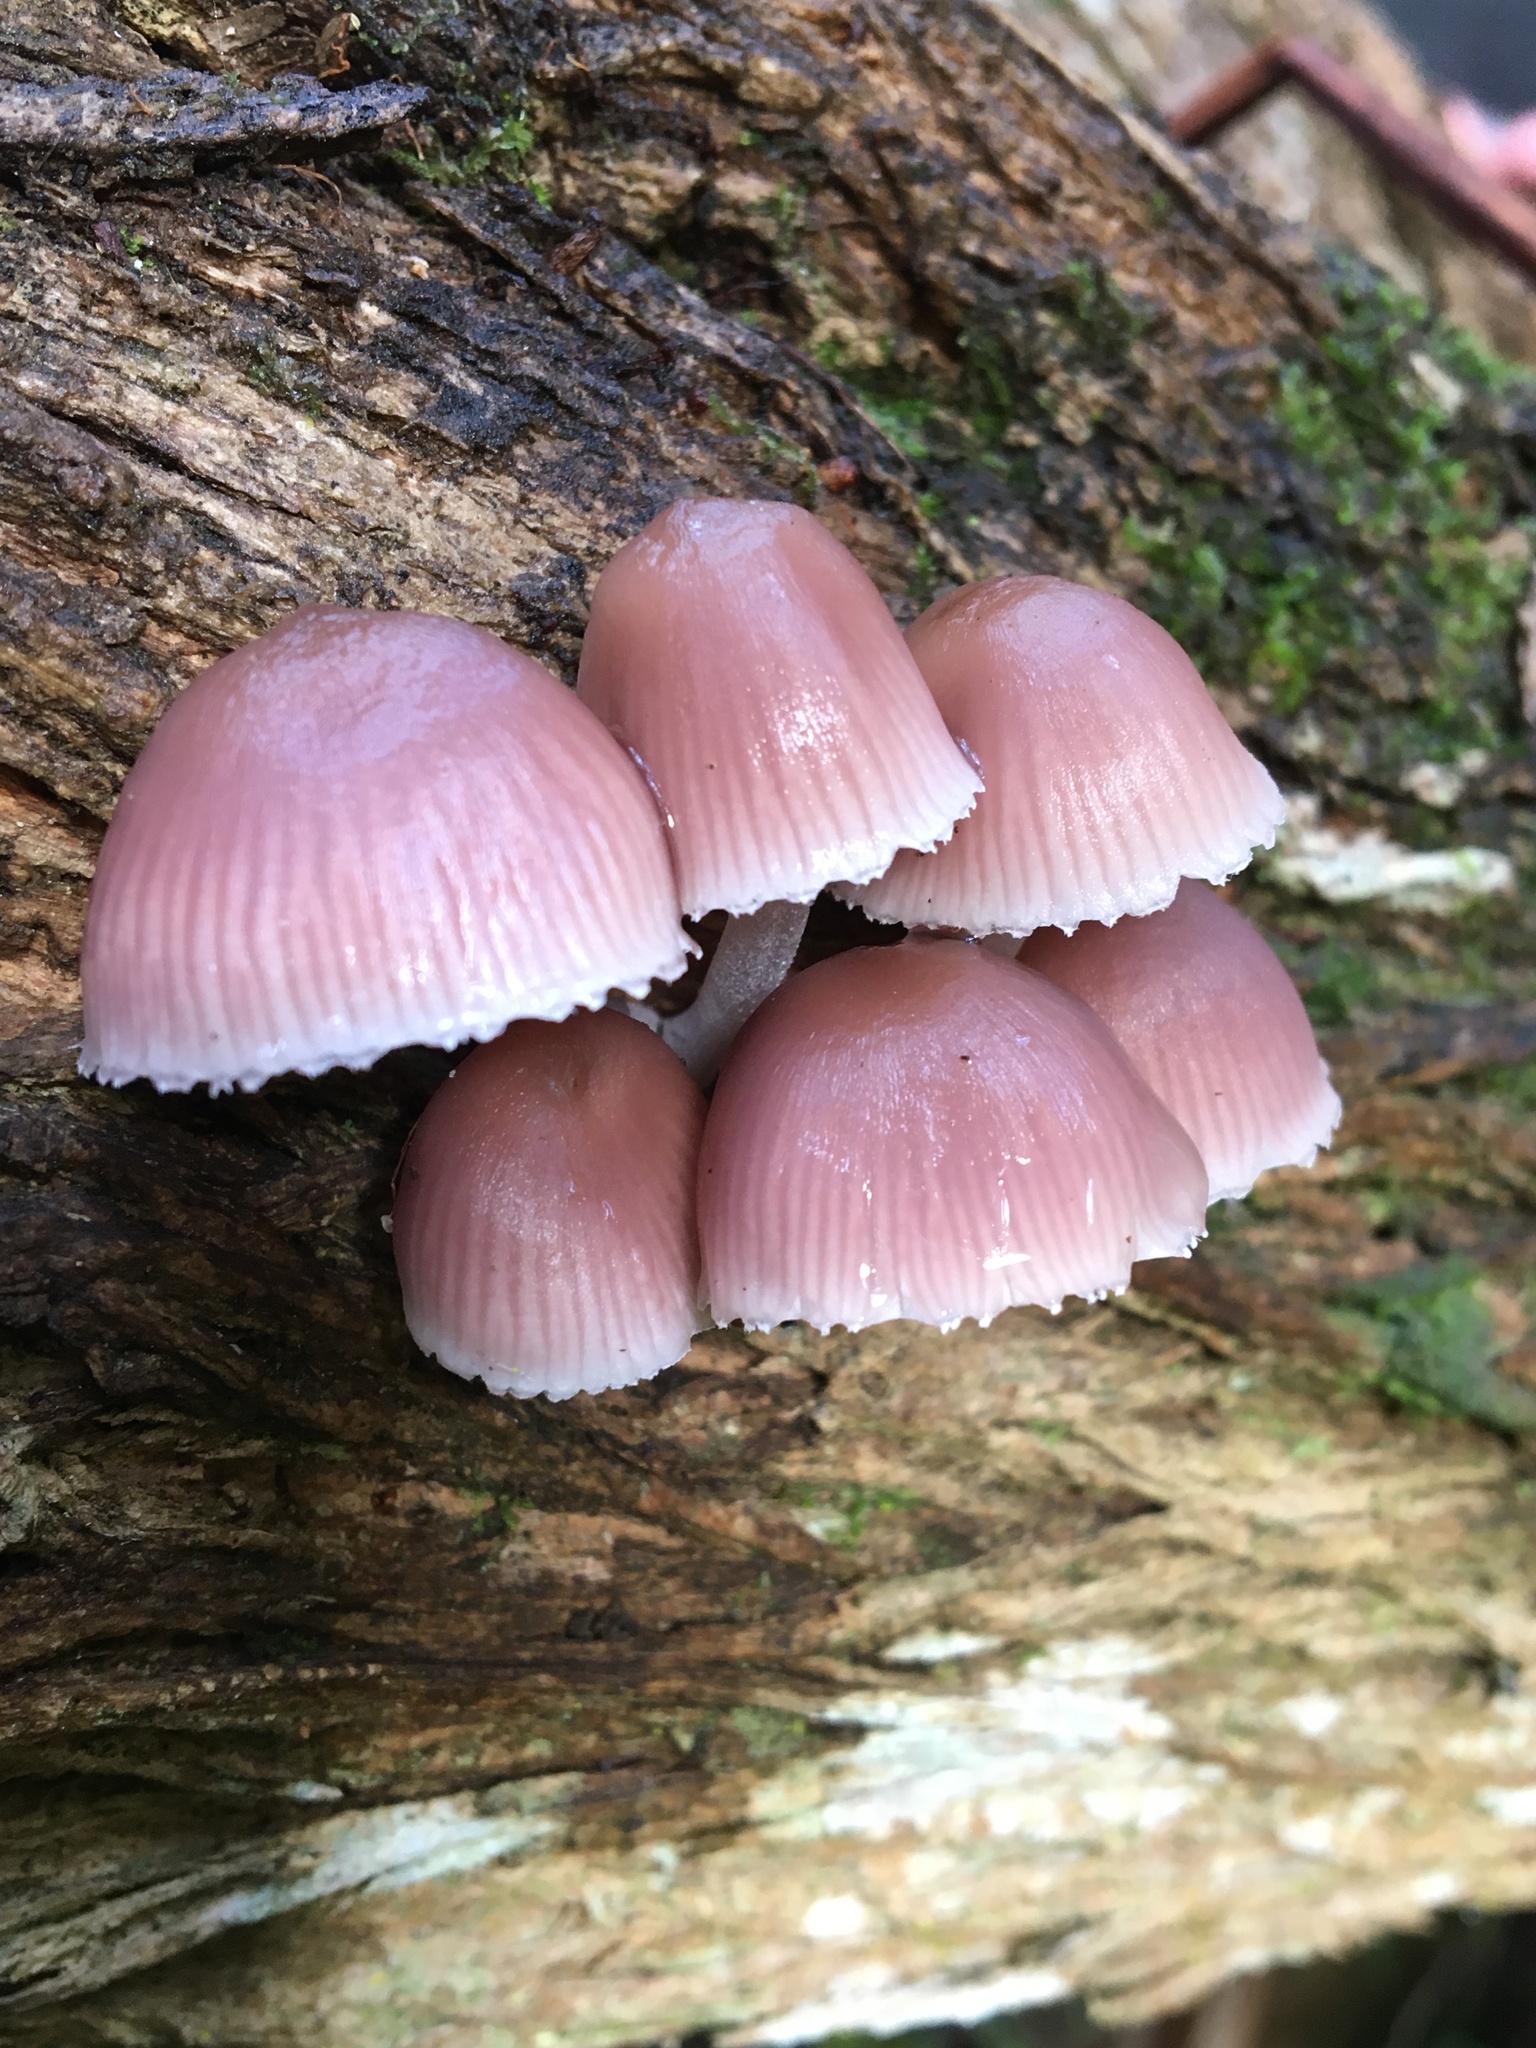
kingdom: Fungi
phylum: Basidiomycota
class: Agaricomycetes
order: Agaricales
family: Mycenaceae
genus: Mycena
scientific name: Mycena clarkeana
